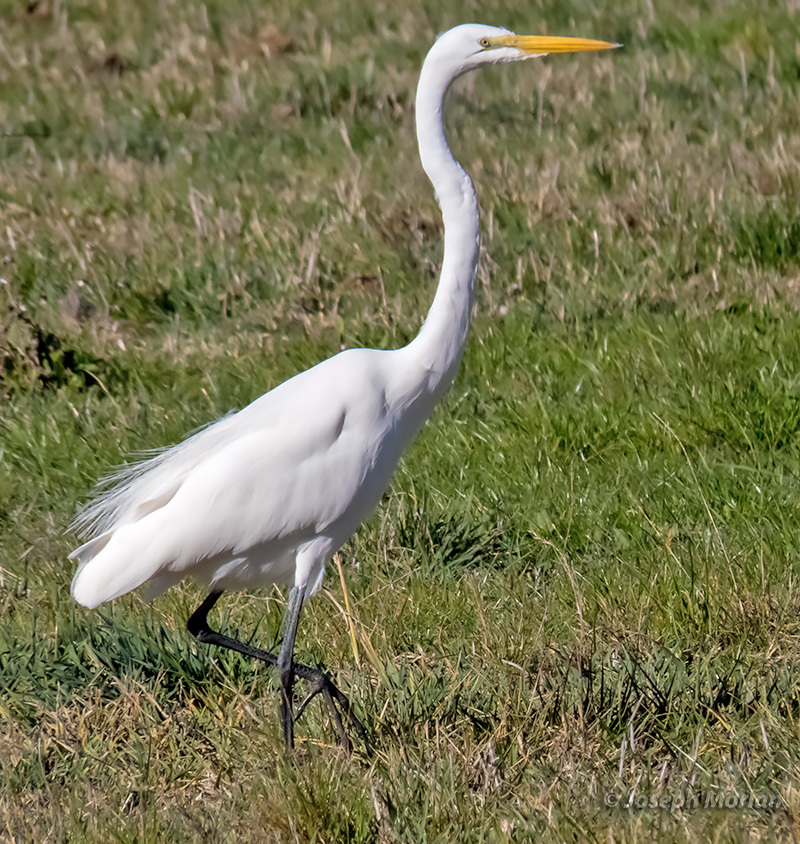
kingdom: Animalia
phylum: Chordata
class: Aves
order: Pelecaniformes
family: Ardeidae
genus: Ardea
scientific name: Ardea alba
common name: Great egret
